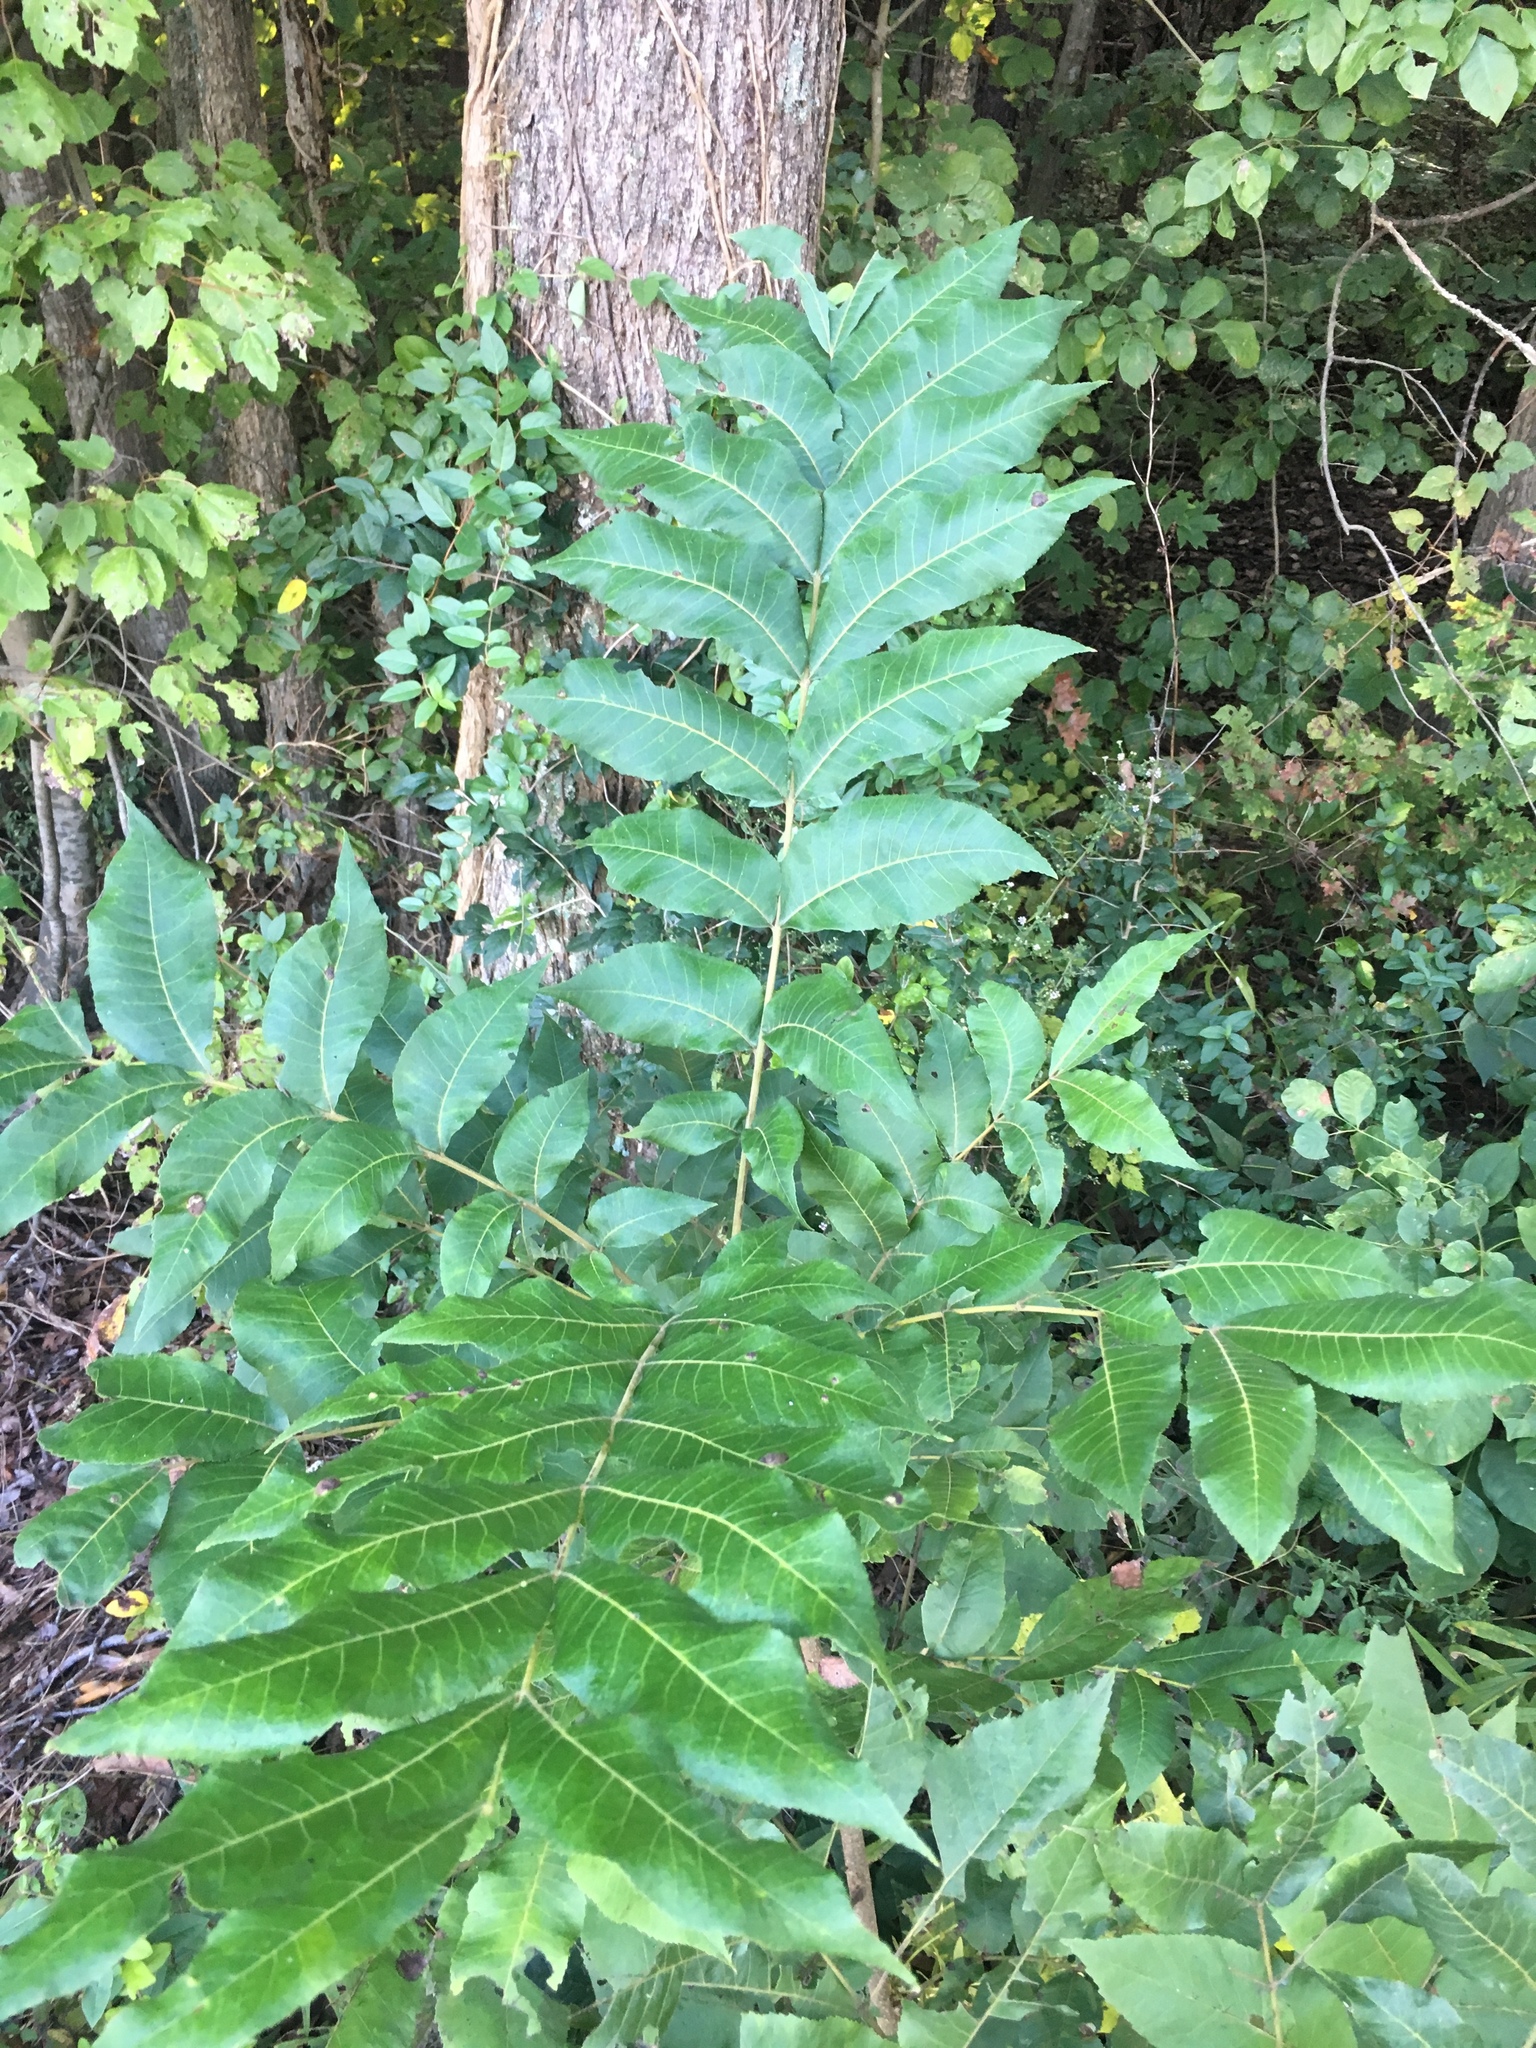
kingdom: Plantae
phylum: Tracheophyta
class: Magnoliopsida
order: Fagales
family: Juglandaceae
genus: Juglans
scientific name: Juglans nigra
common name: Black walnut
